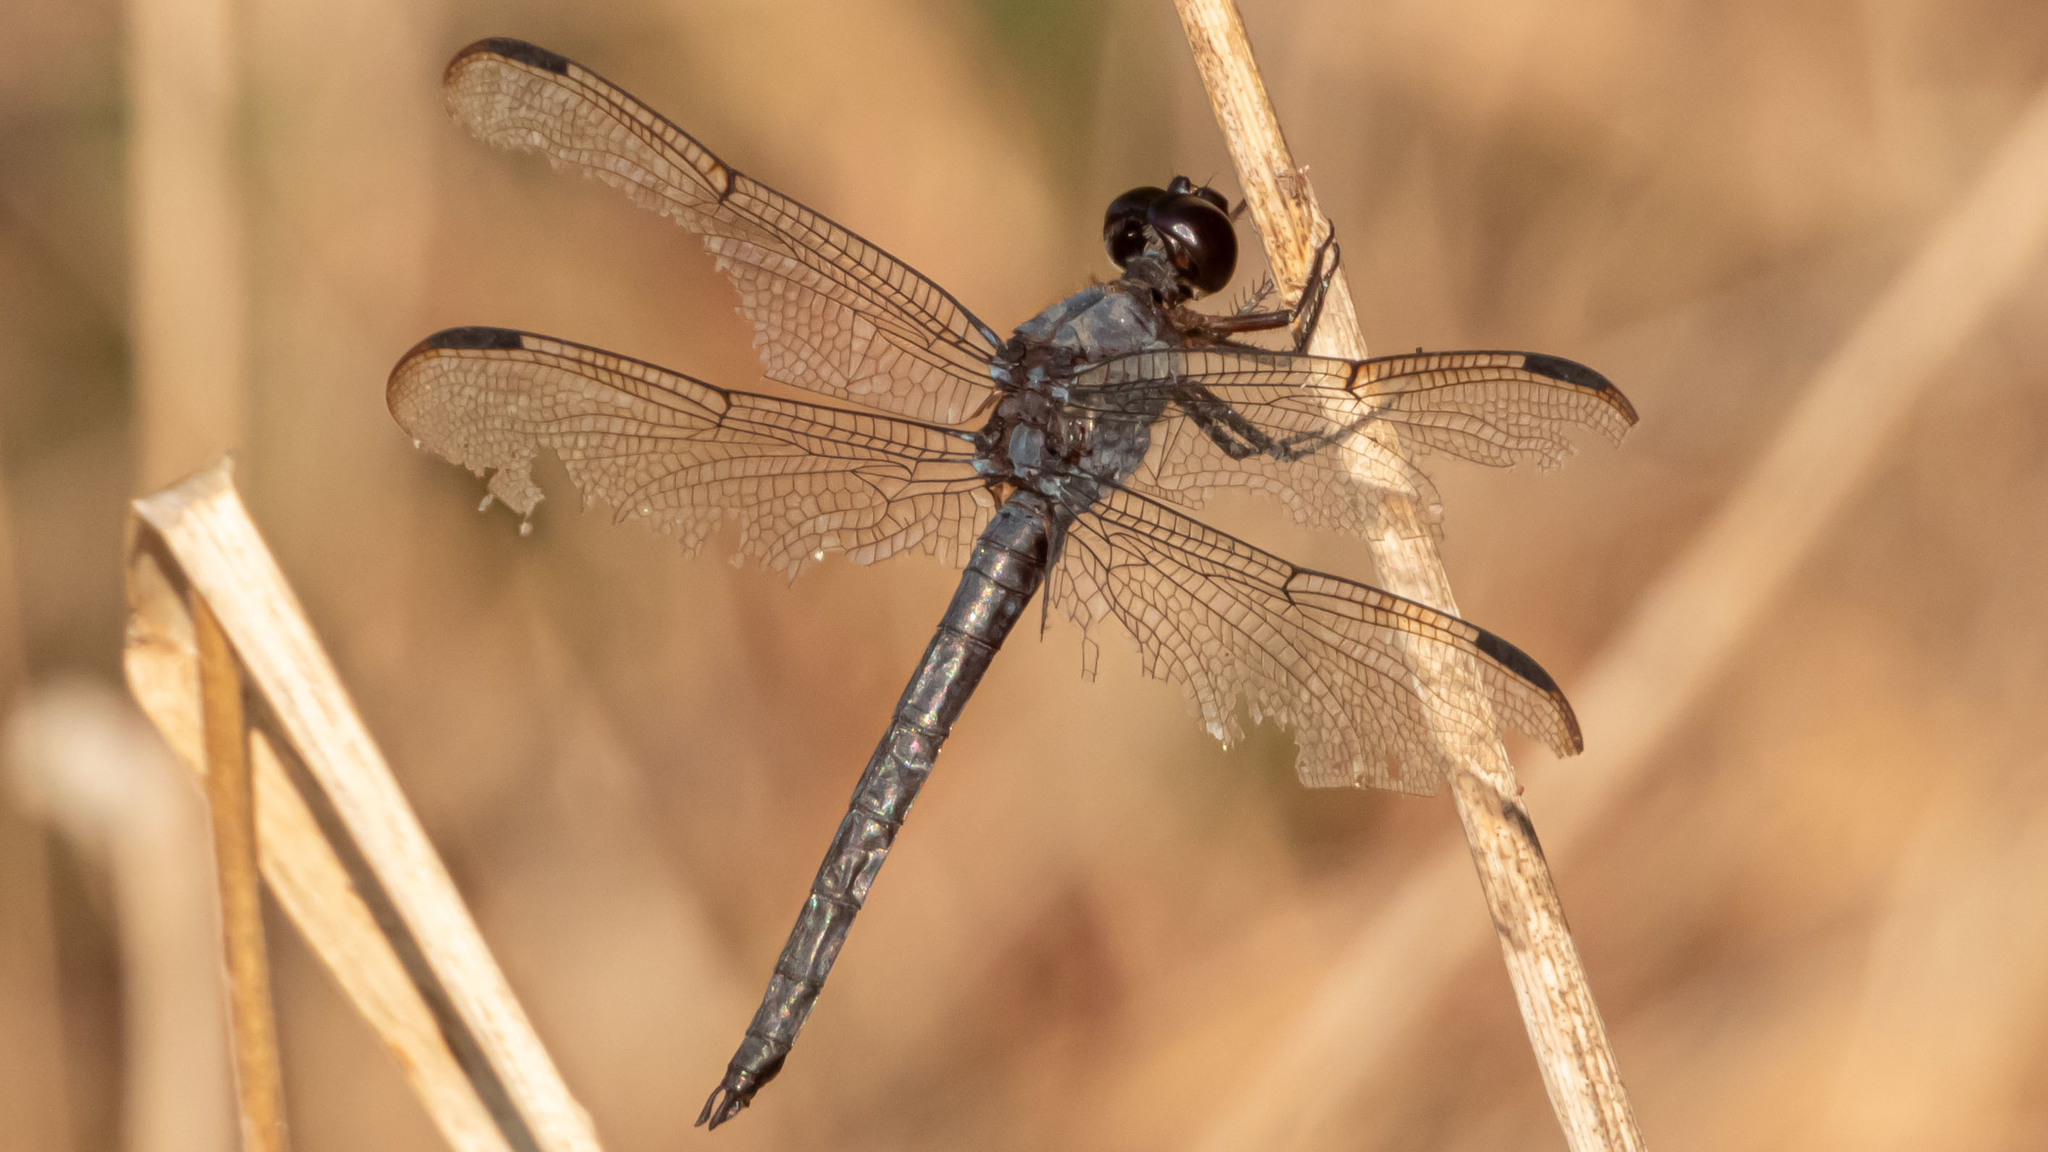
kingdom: Animalia
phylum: Arthropoda
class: Insecta
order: Odonata
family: Libellulidae
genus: Libellula
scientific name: Libellula incesta
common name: Slaty skimmer
